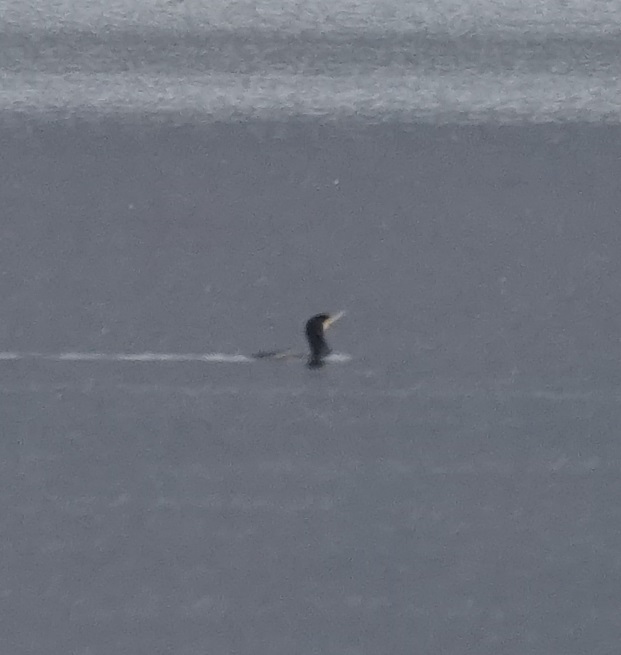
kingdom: Animalia
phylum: Chordata
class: Aves
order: Suliformes
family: Phalacrocoracidae
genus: Phalacrocorax
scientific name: Phalacrocorax carbo
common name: Great cormorant
